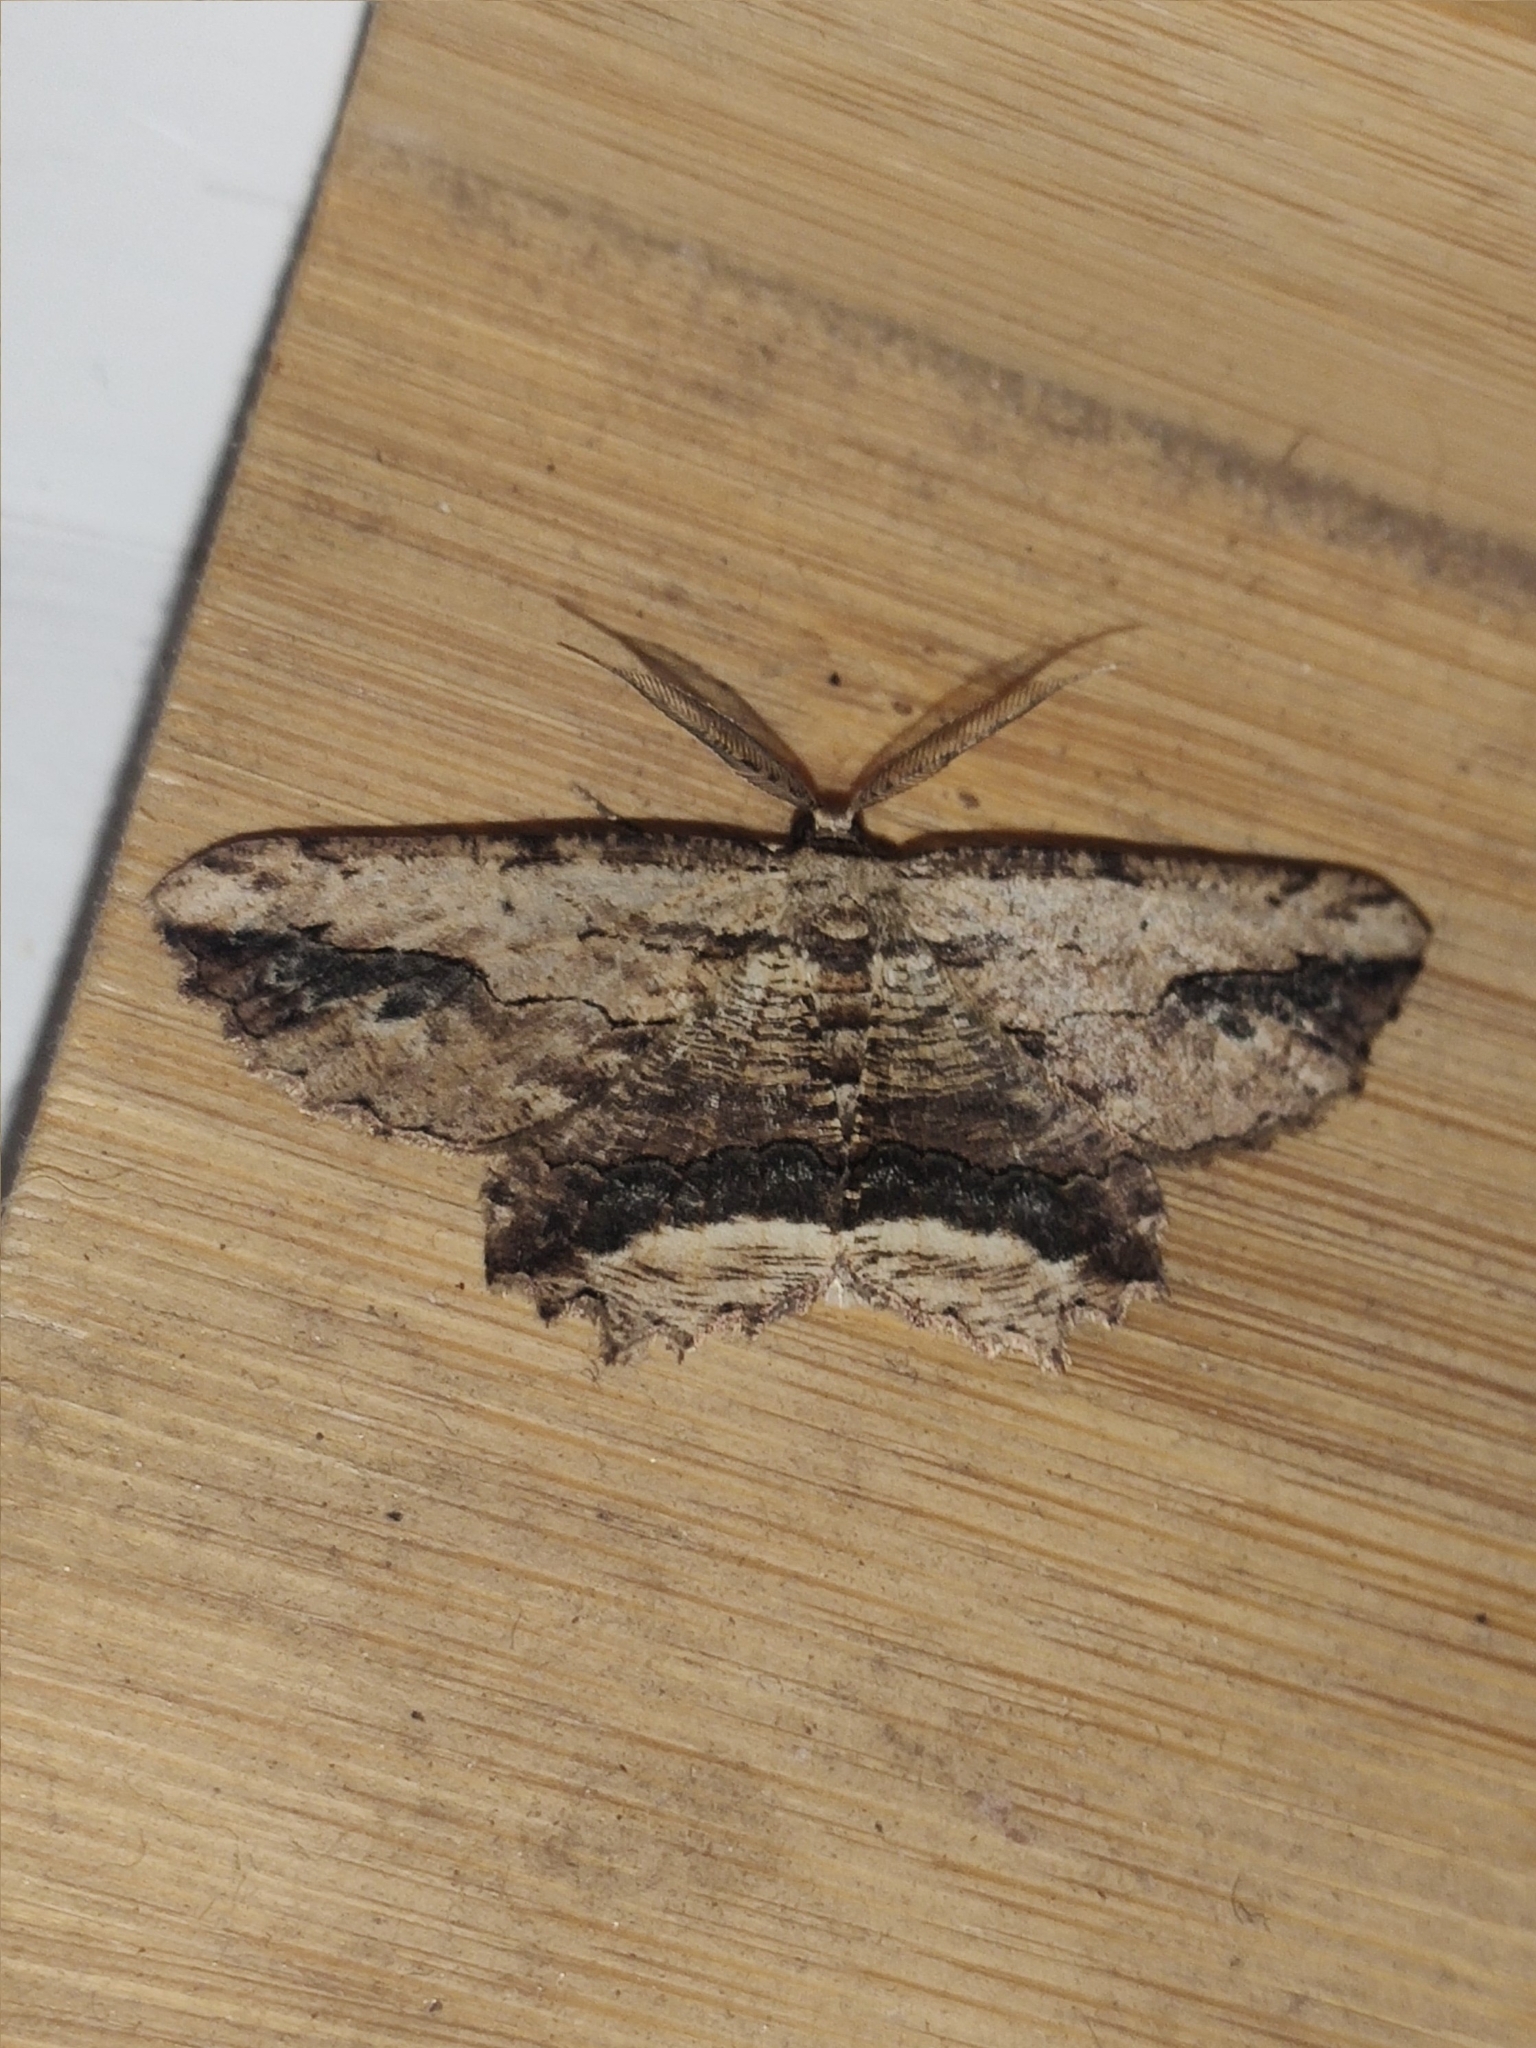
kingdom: Animalia
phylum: Arthropoda
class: Insecta
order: Lepidoptera
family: Geometridae
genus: Menophra
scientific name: Menophra abruptaria
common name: Waved umber
